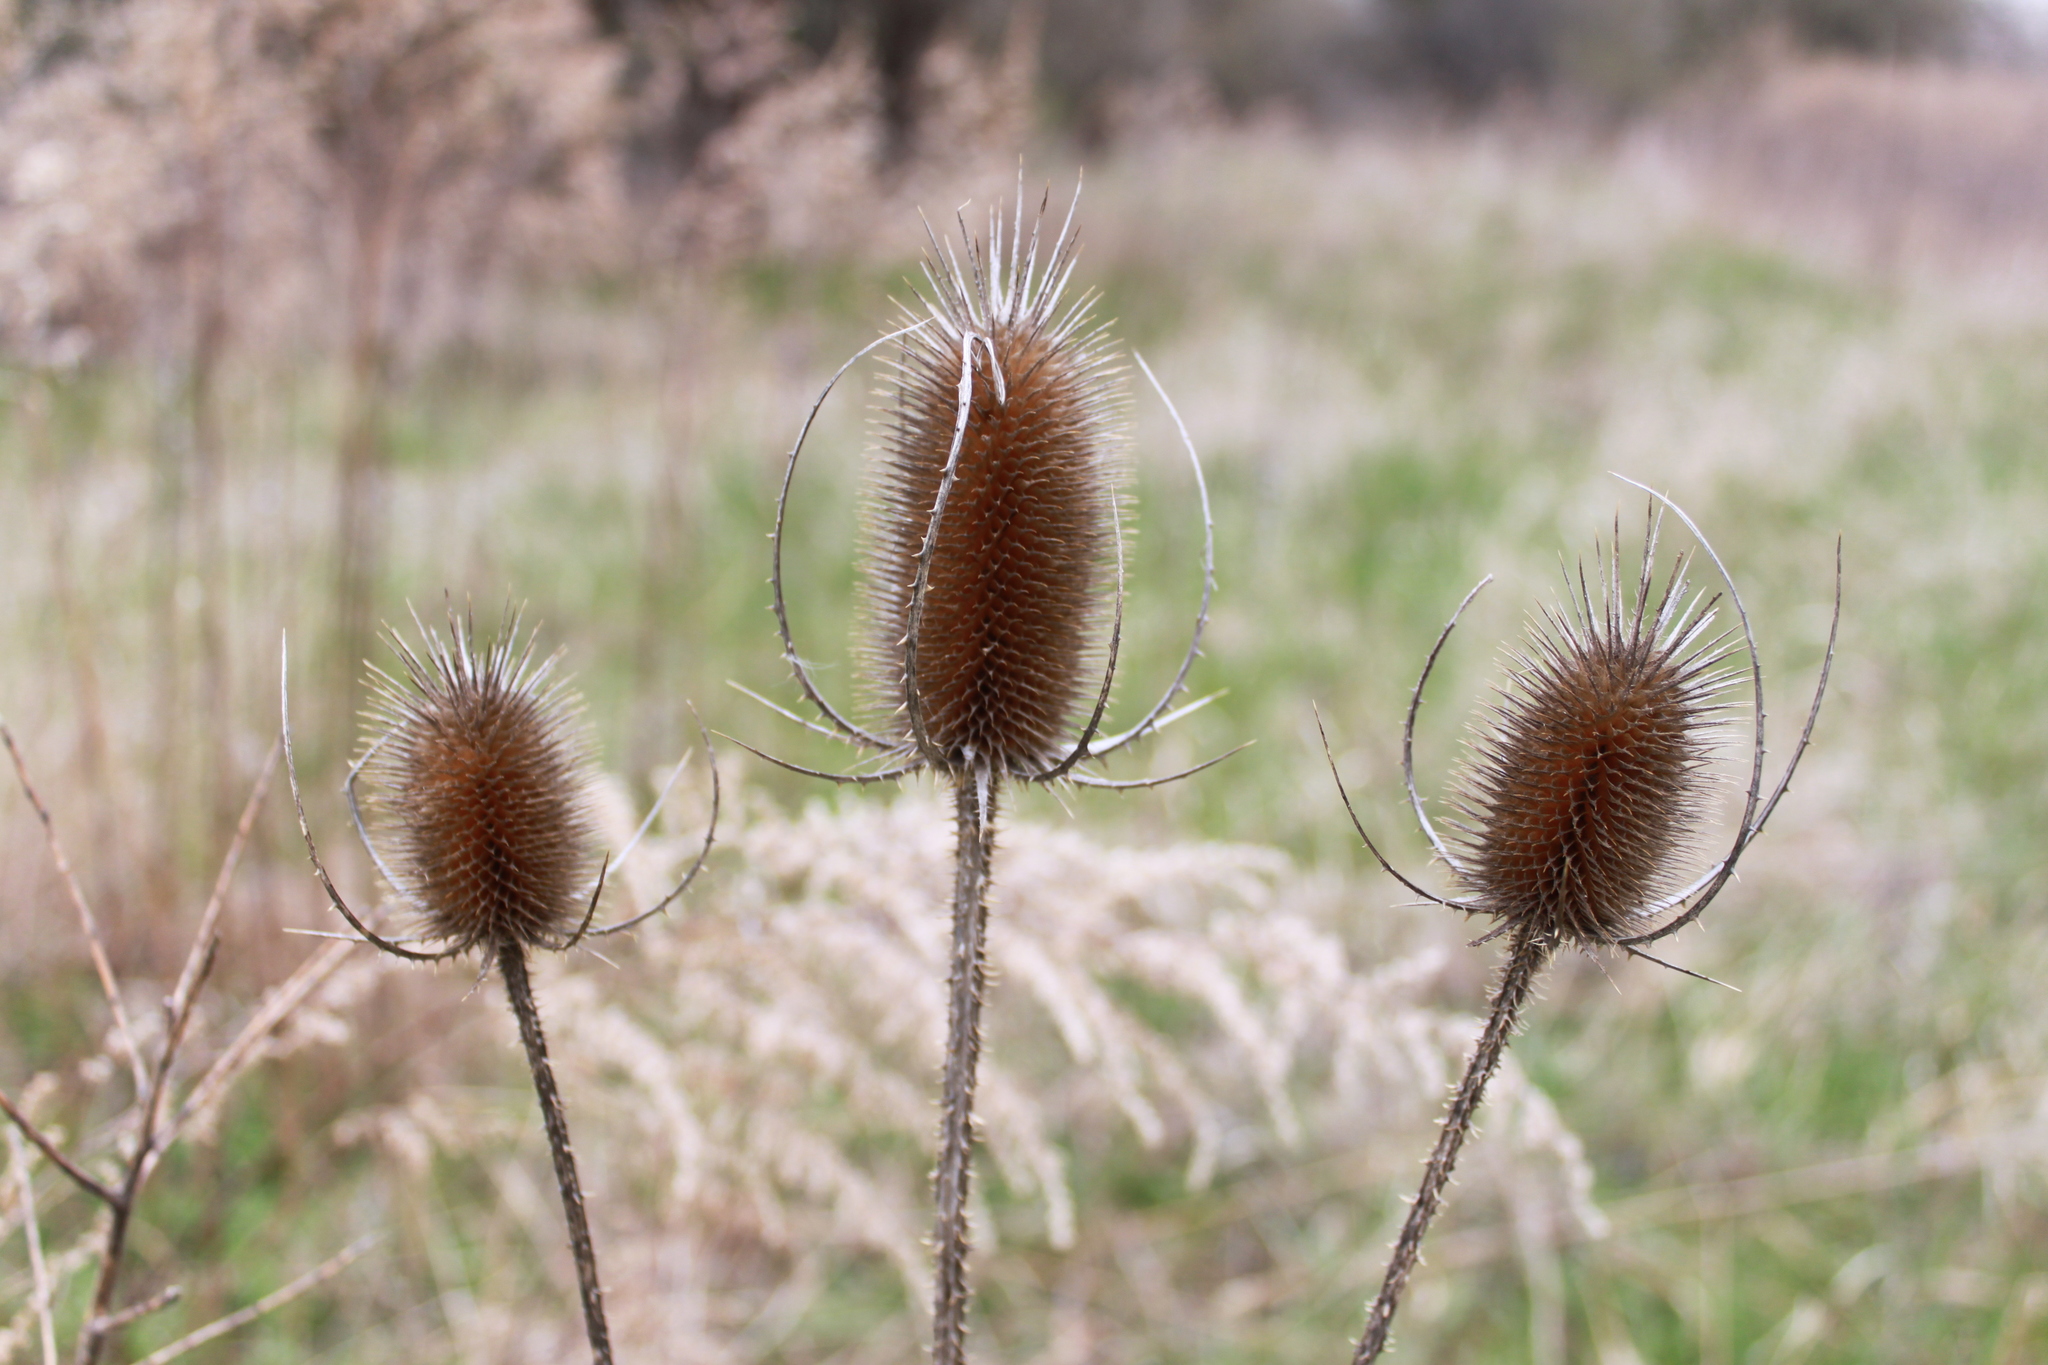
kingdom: Plantae
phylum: Tracheophyta
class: Magnoliopsida
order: Dipsacales
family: Caprifoliaceae
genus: Dipsacus
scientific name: Dipsacus fullonum
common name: Teasel
